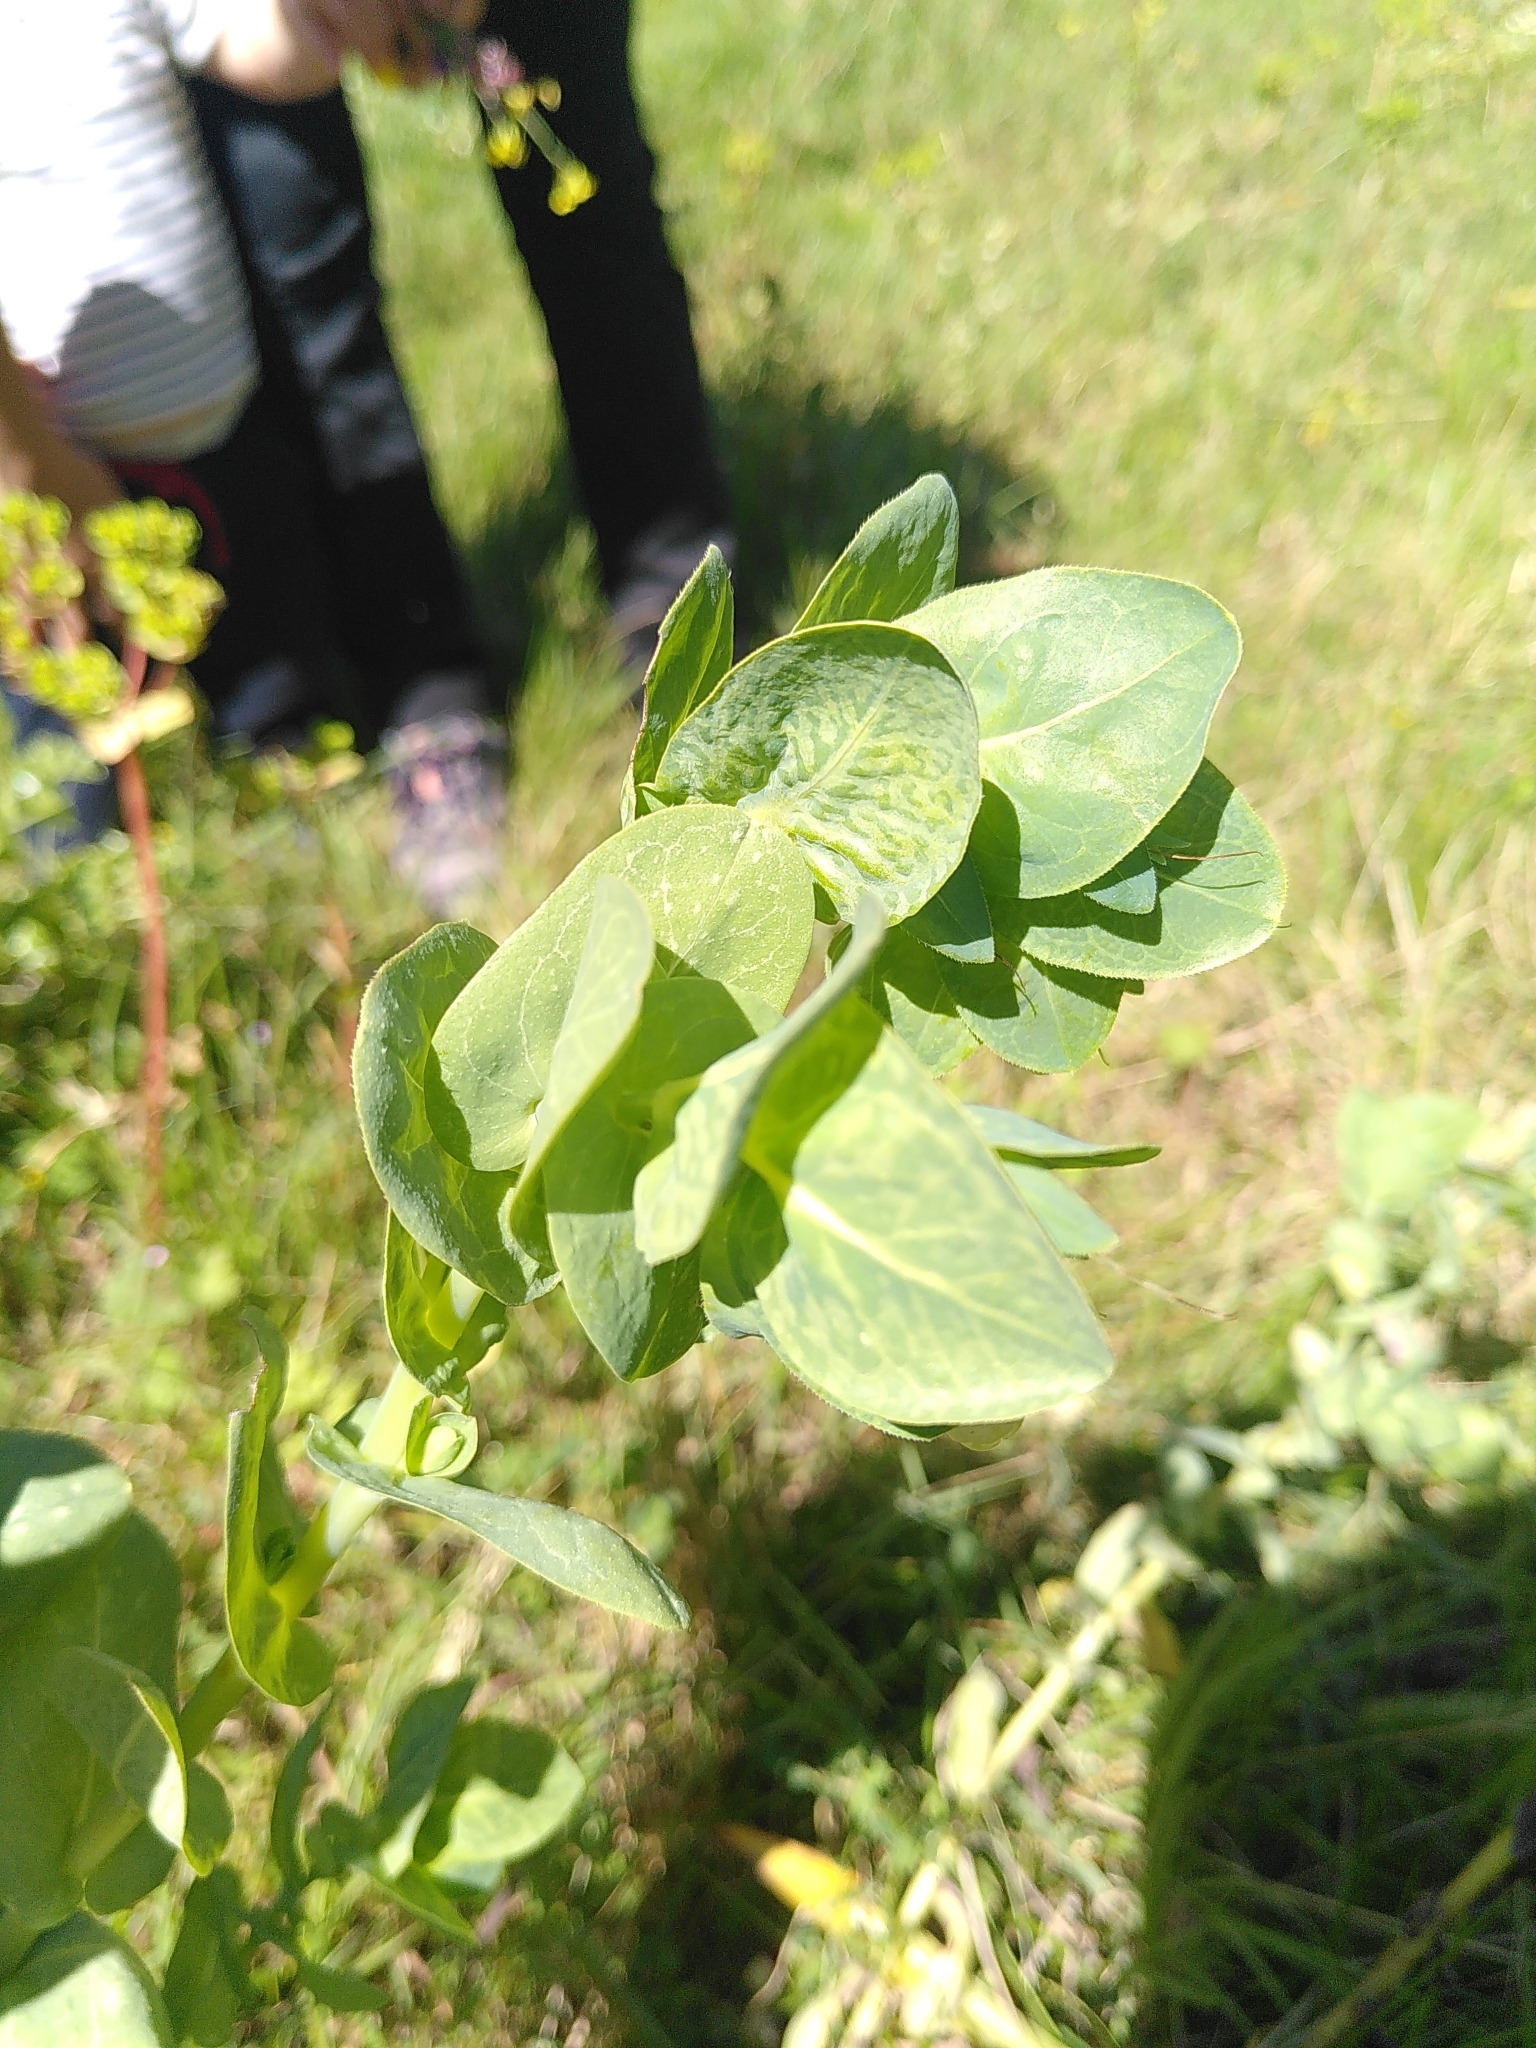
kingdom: Plantae
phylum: Tracheophyta
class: Magnoliopsida
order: Boraginales
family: Boraginaceae
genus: Cerinthe
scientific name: Cerinthe major
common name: Greater honeywort
